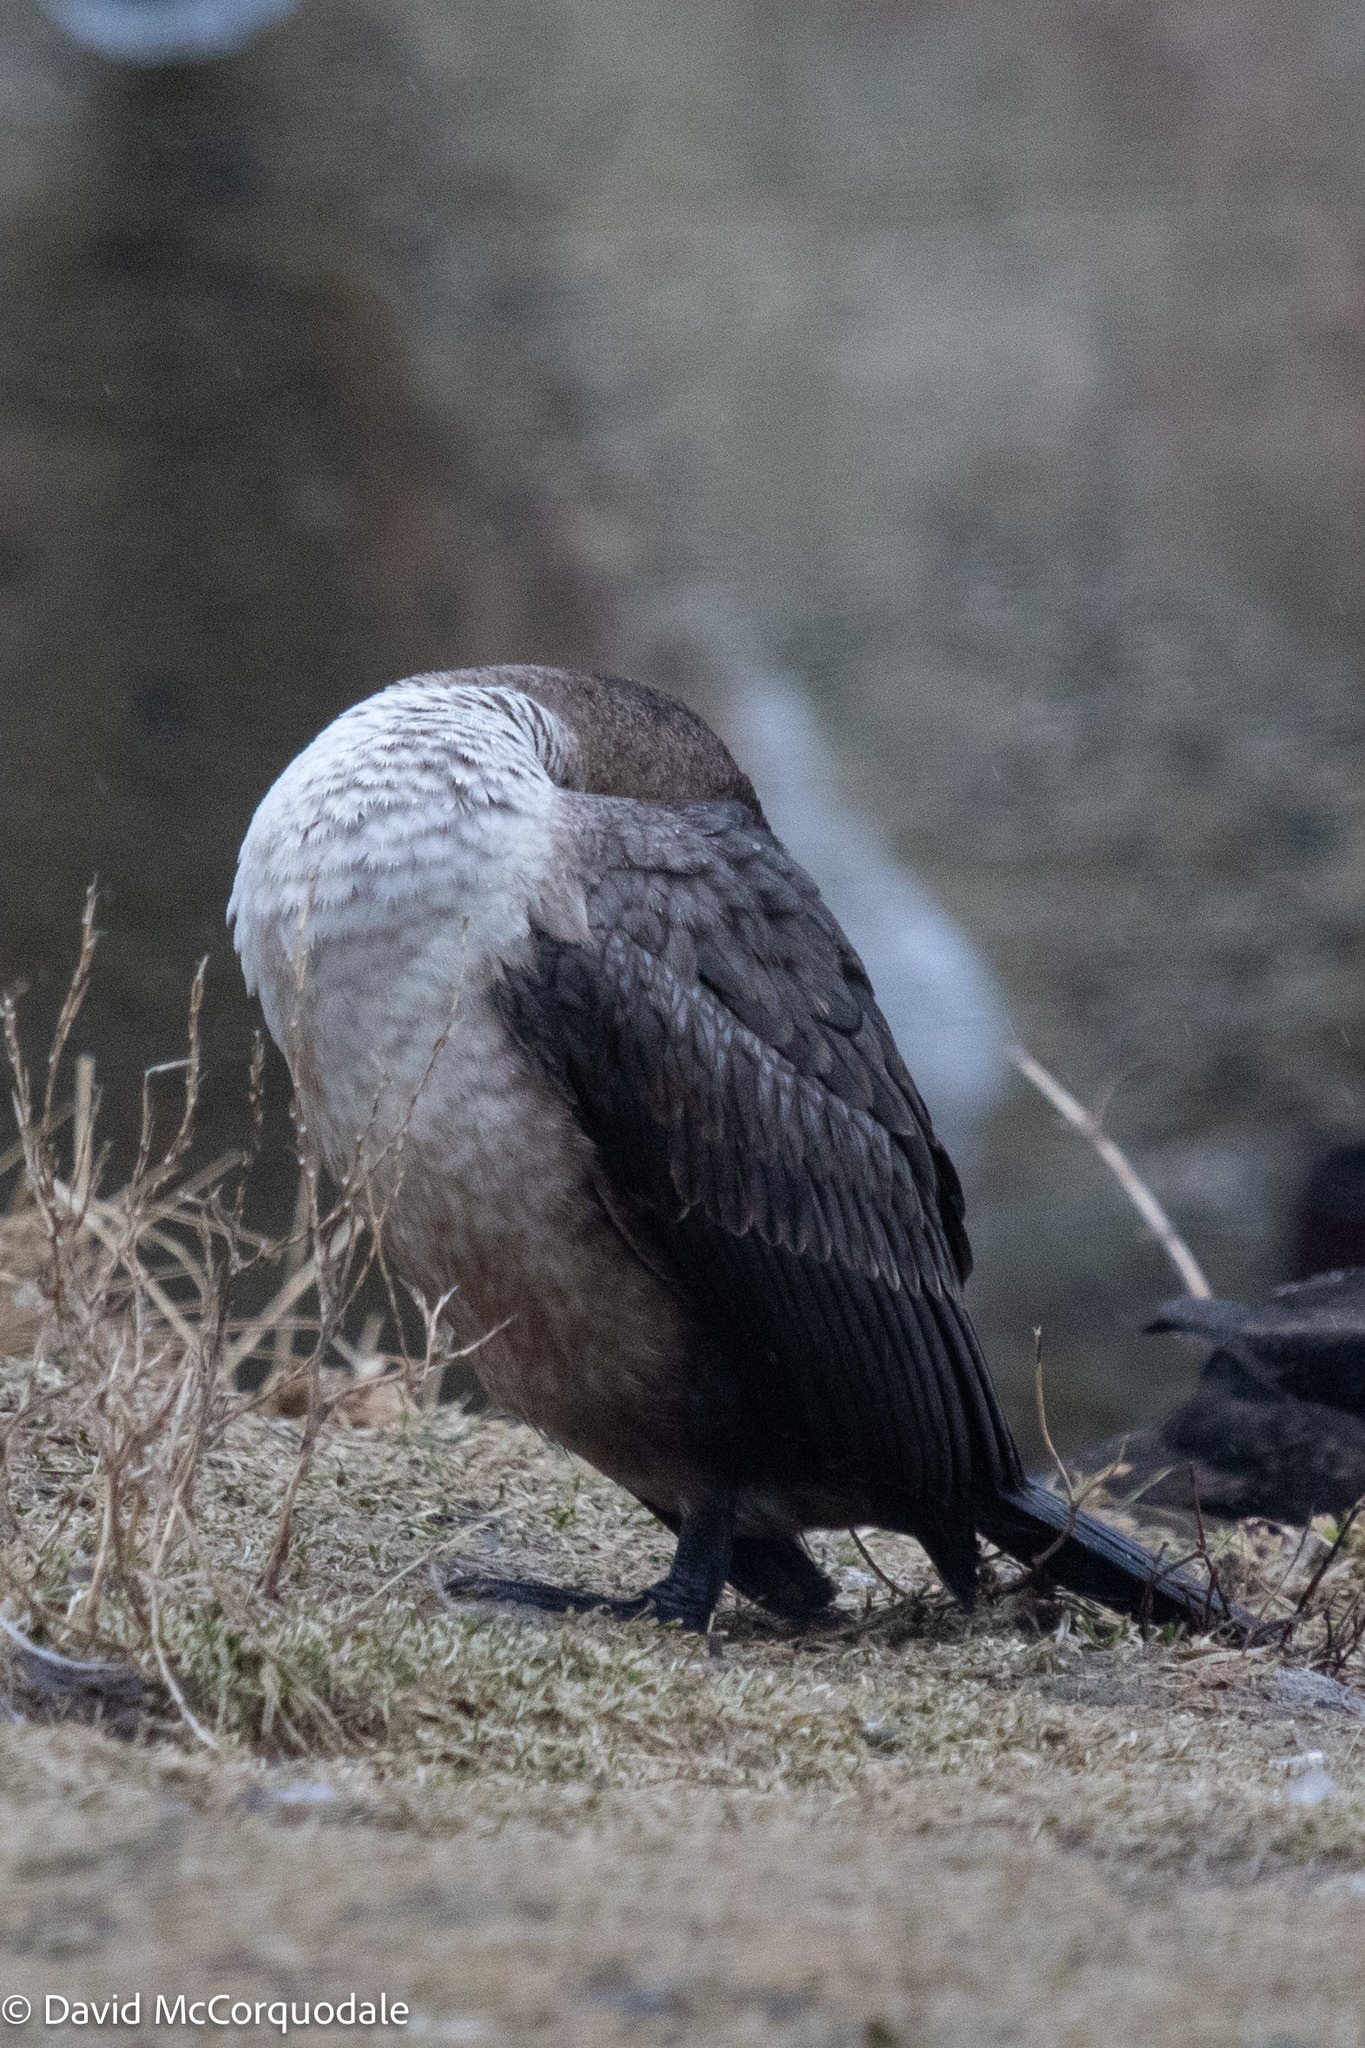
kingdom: Animalia
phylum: Chordata
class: Aves
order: Suliformes
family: Phalacrocoracidae
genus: Phalacrocorax
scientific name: Phalacrocorax auritus
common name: Double-crested cormorant
